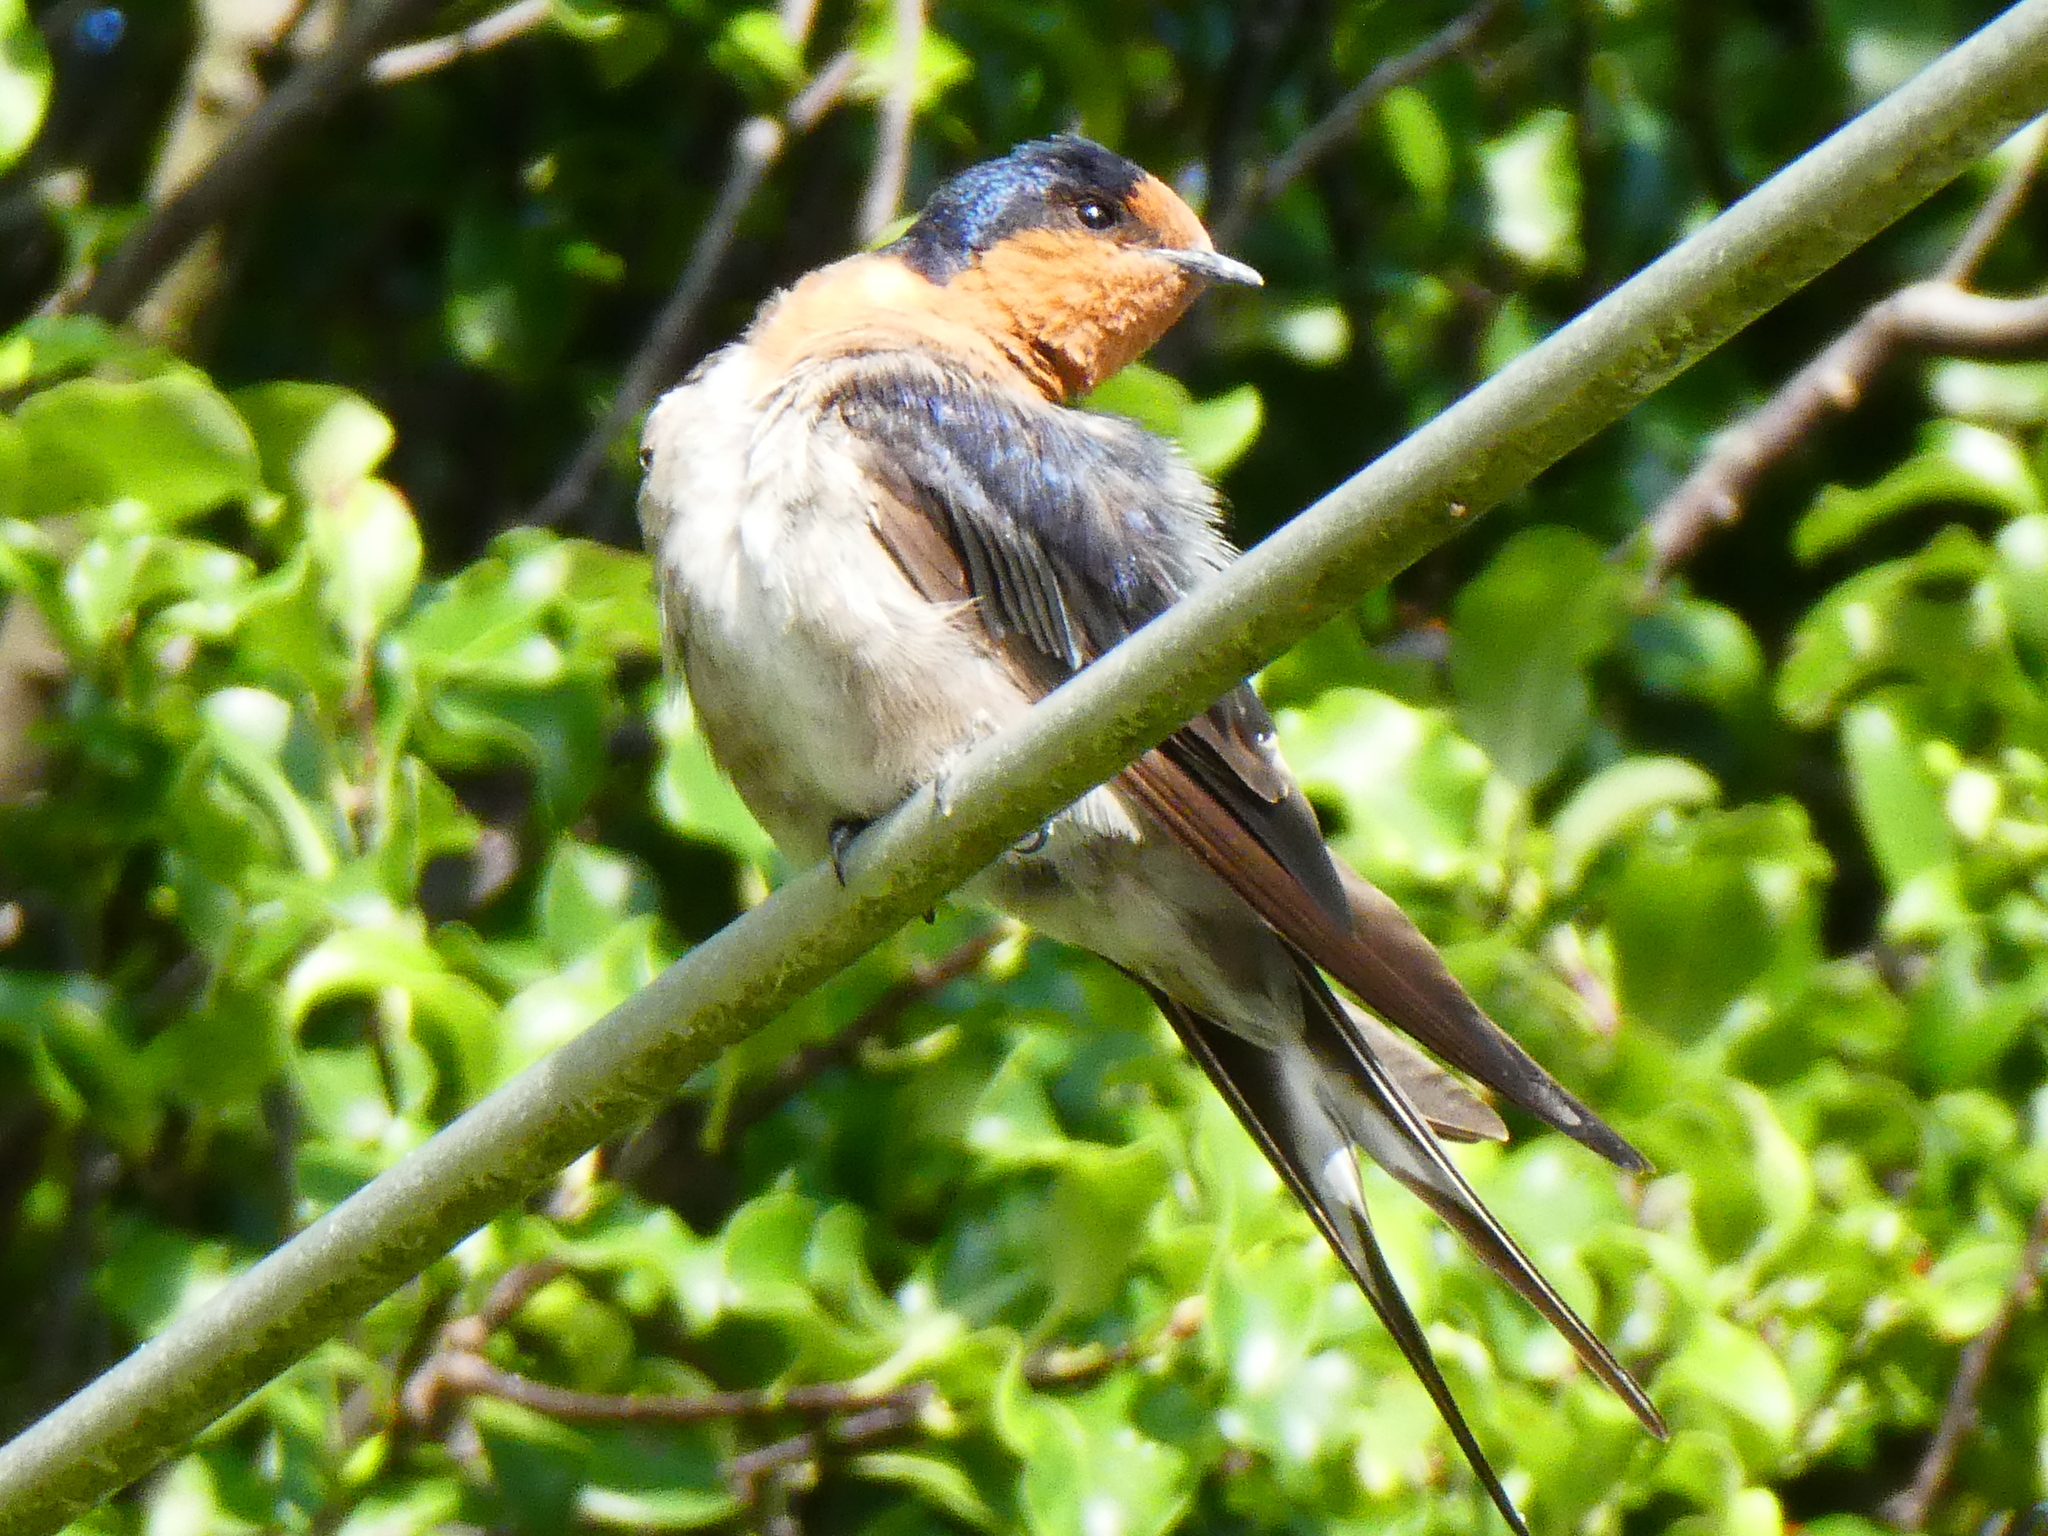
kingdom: Animalia
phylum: Chordata
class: Aves
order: Passeriformes
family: Hirundinidae
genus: Hirundo
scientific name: Hirundo neoxena
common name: Welcome swallow
